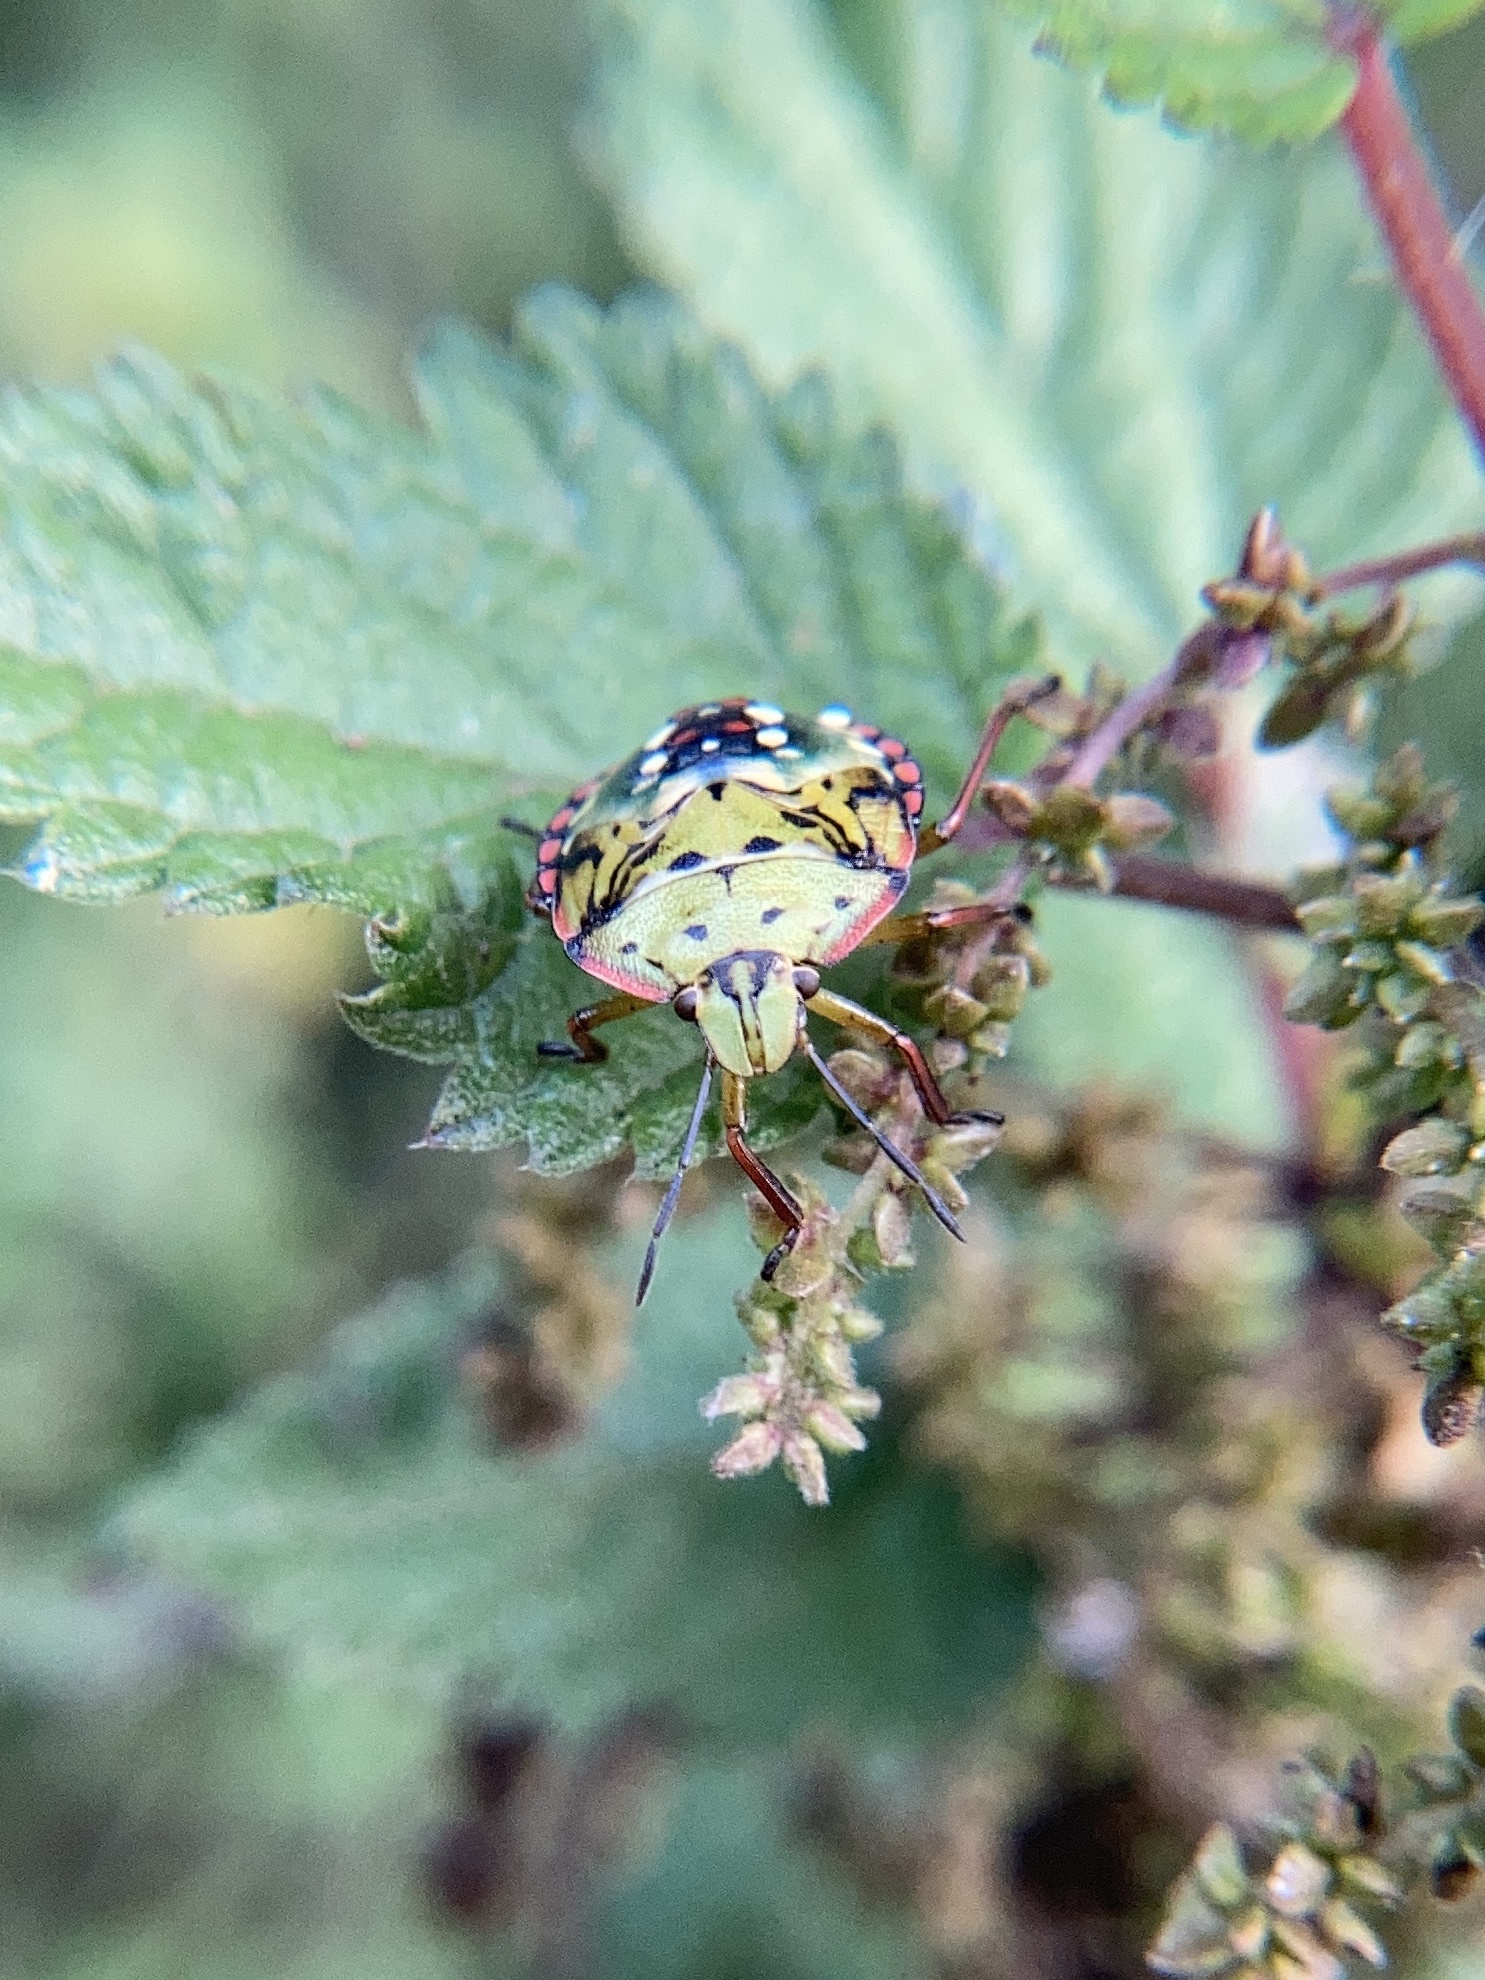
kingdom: Animalia
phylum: Arthropoda
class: Insecta
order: Hemiptera
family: Pentatomidae
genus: Nezara
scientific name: Nezara viridula
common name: Southern green stink bug
